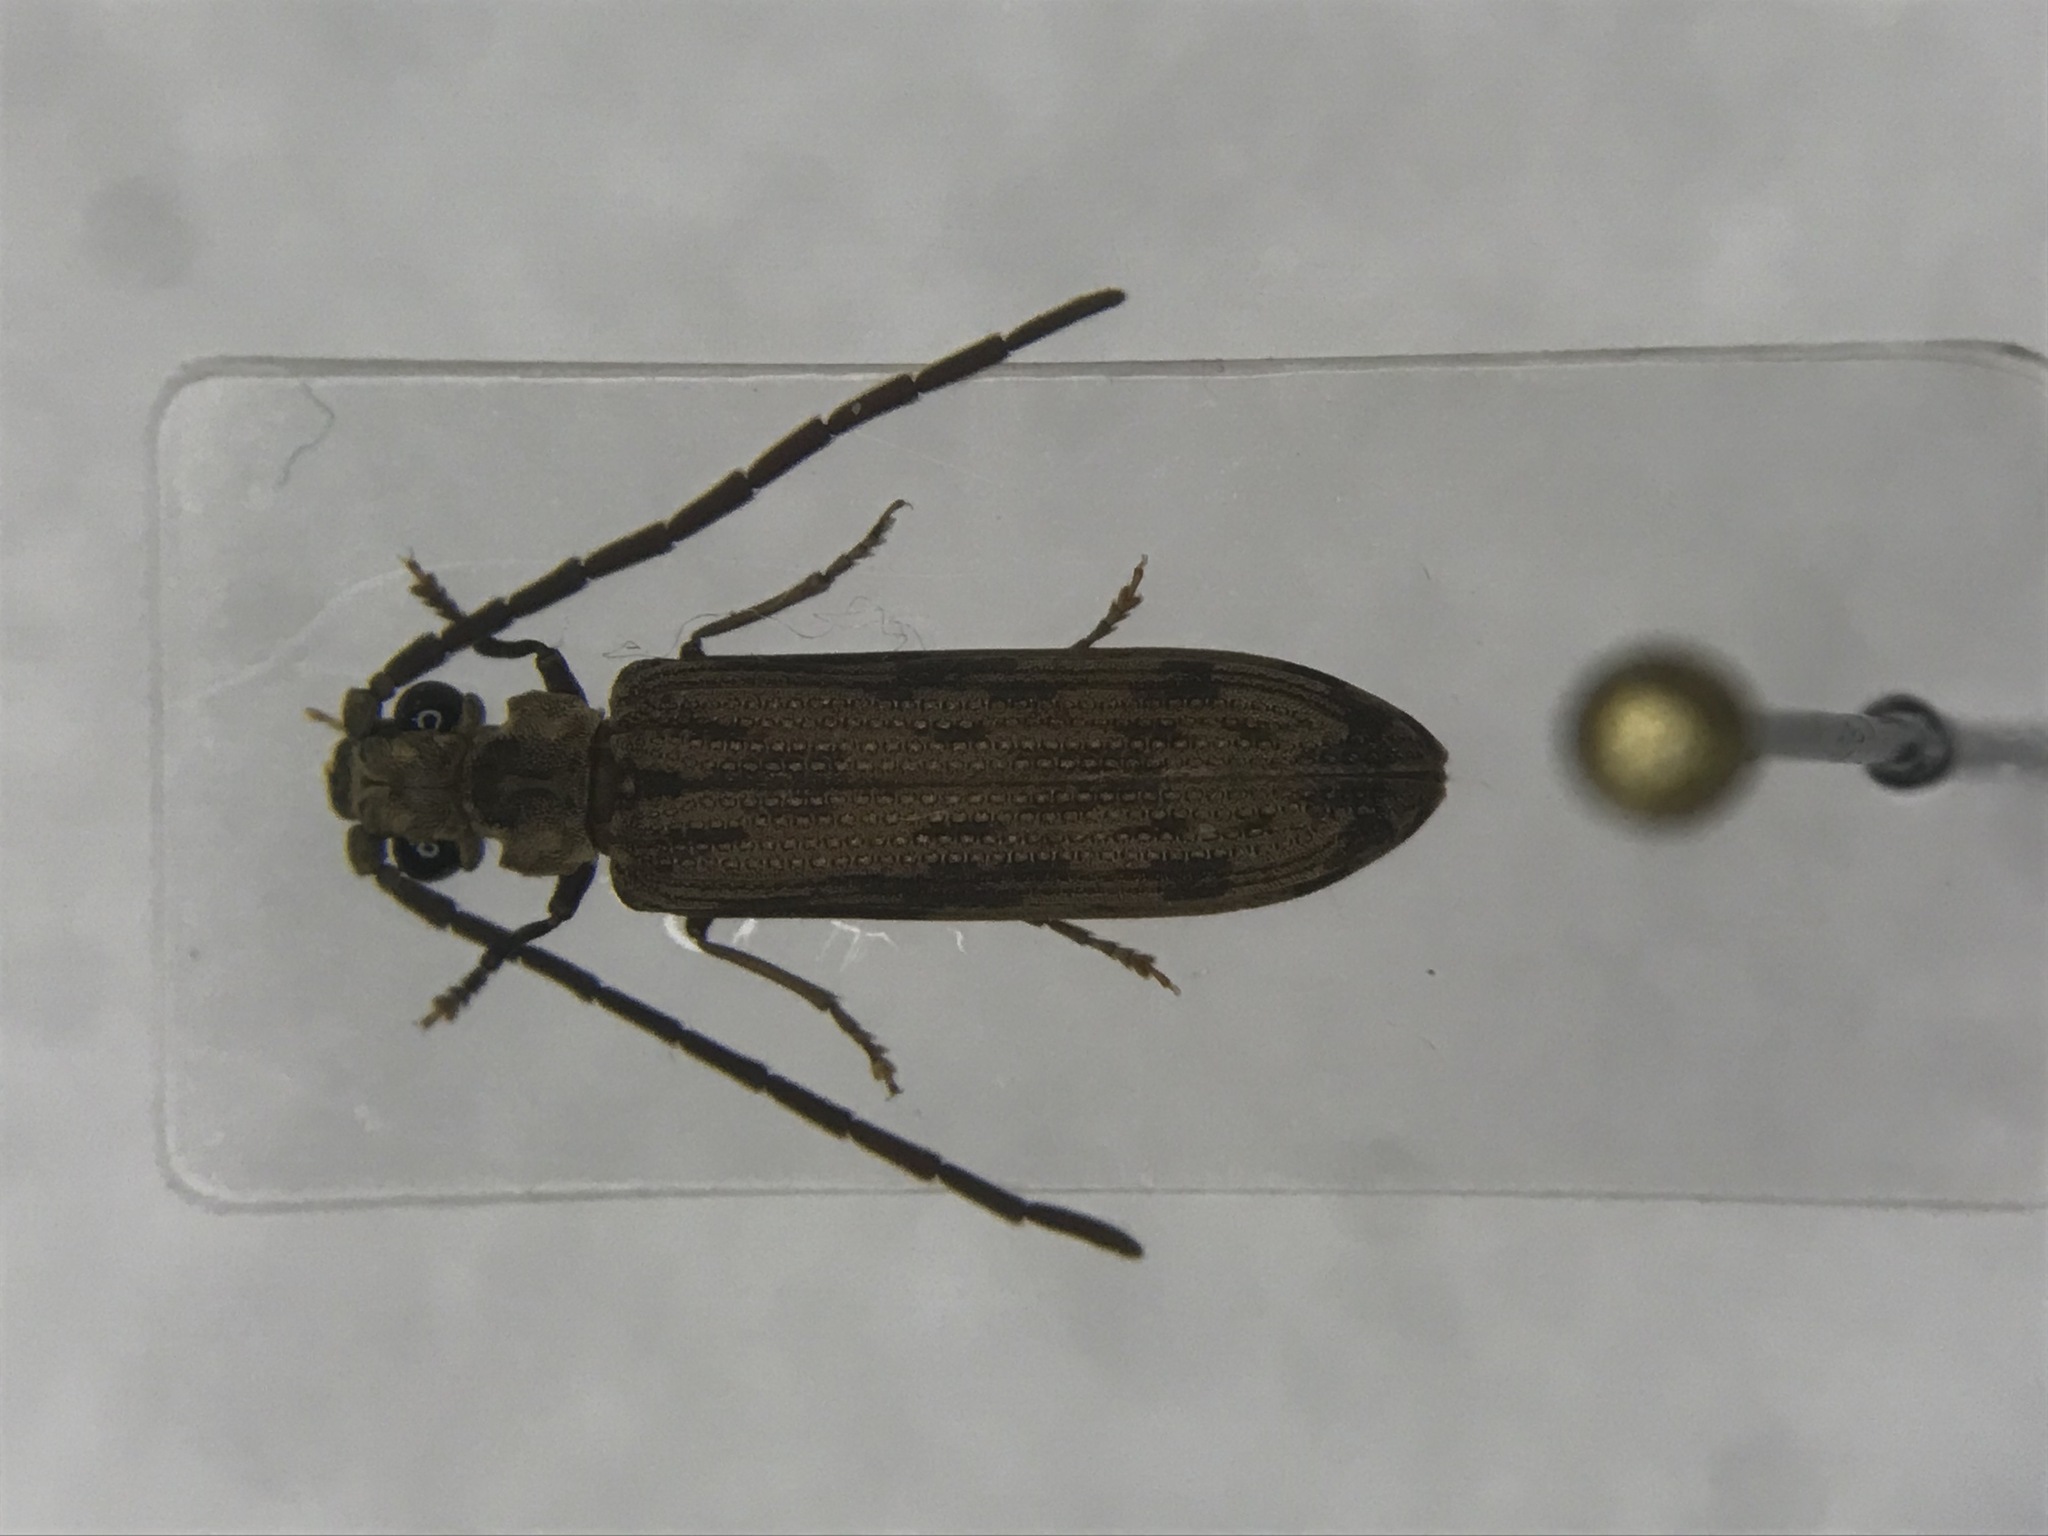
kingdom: Animalia
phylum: Arthropoda
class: Insecta
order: Coleoptera
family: Cupedidae
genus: Tenomerga
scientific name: Tenomerga cinerea
